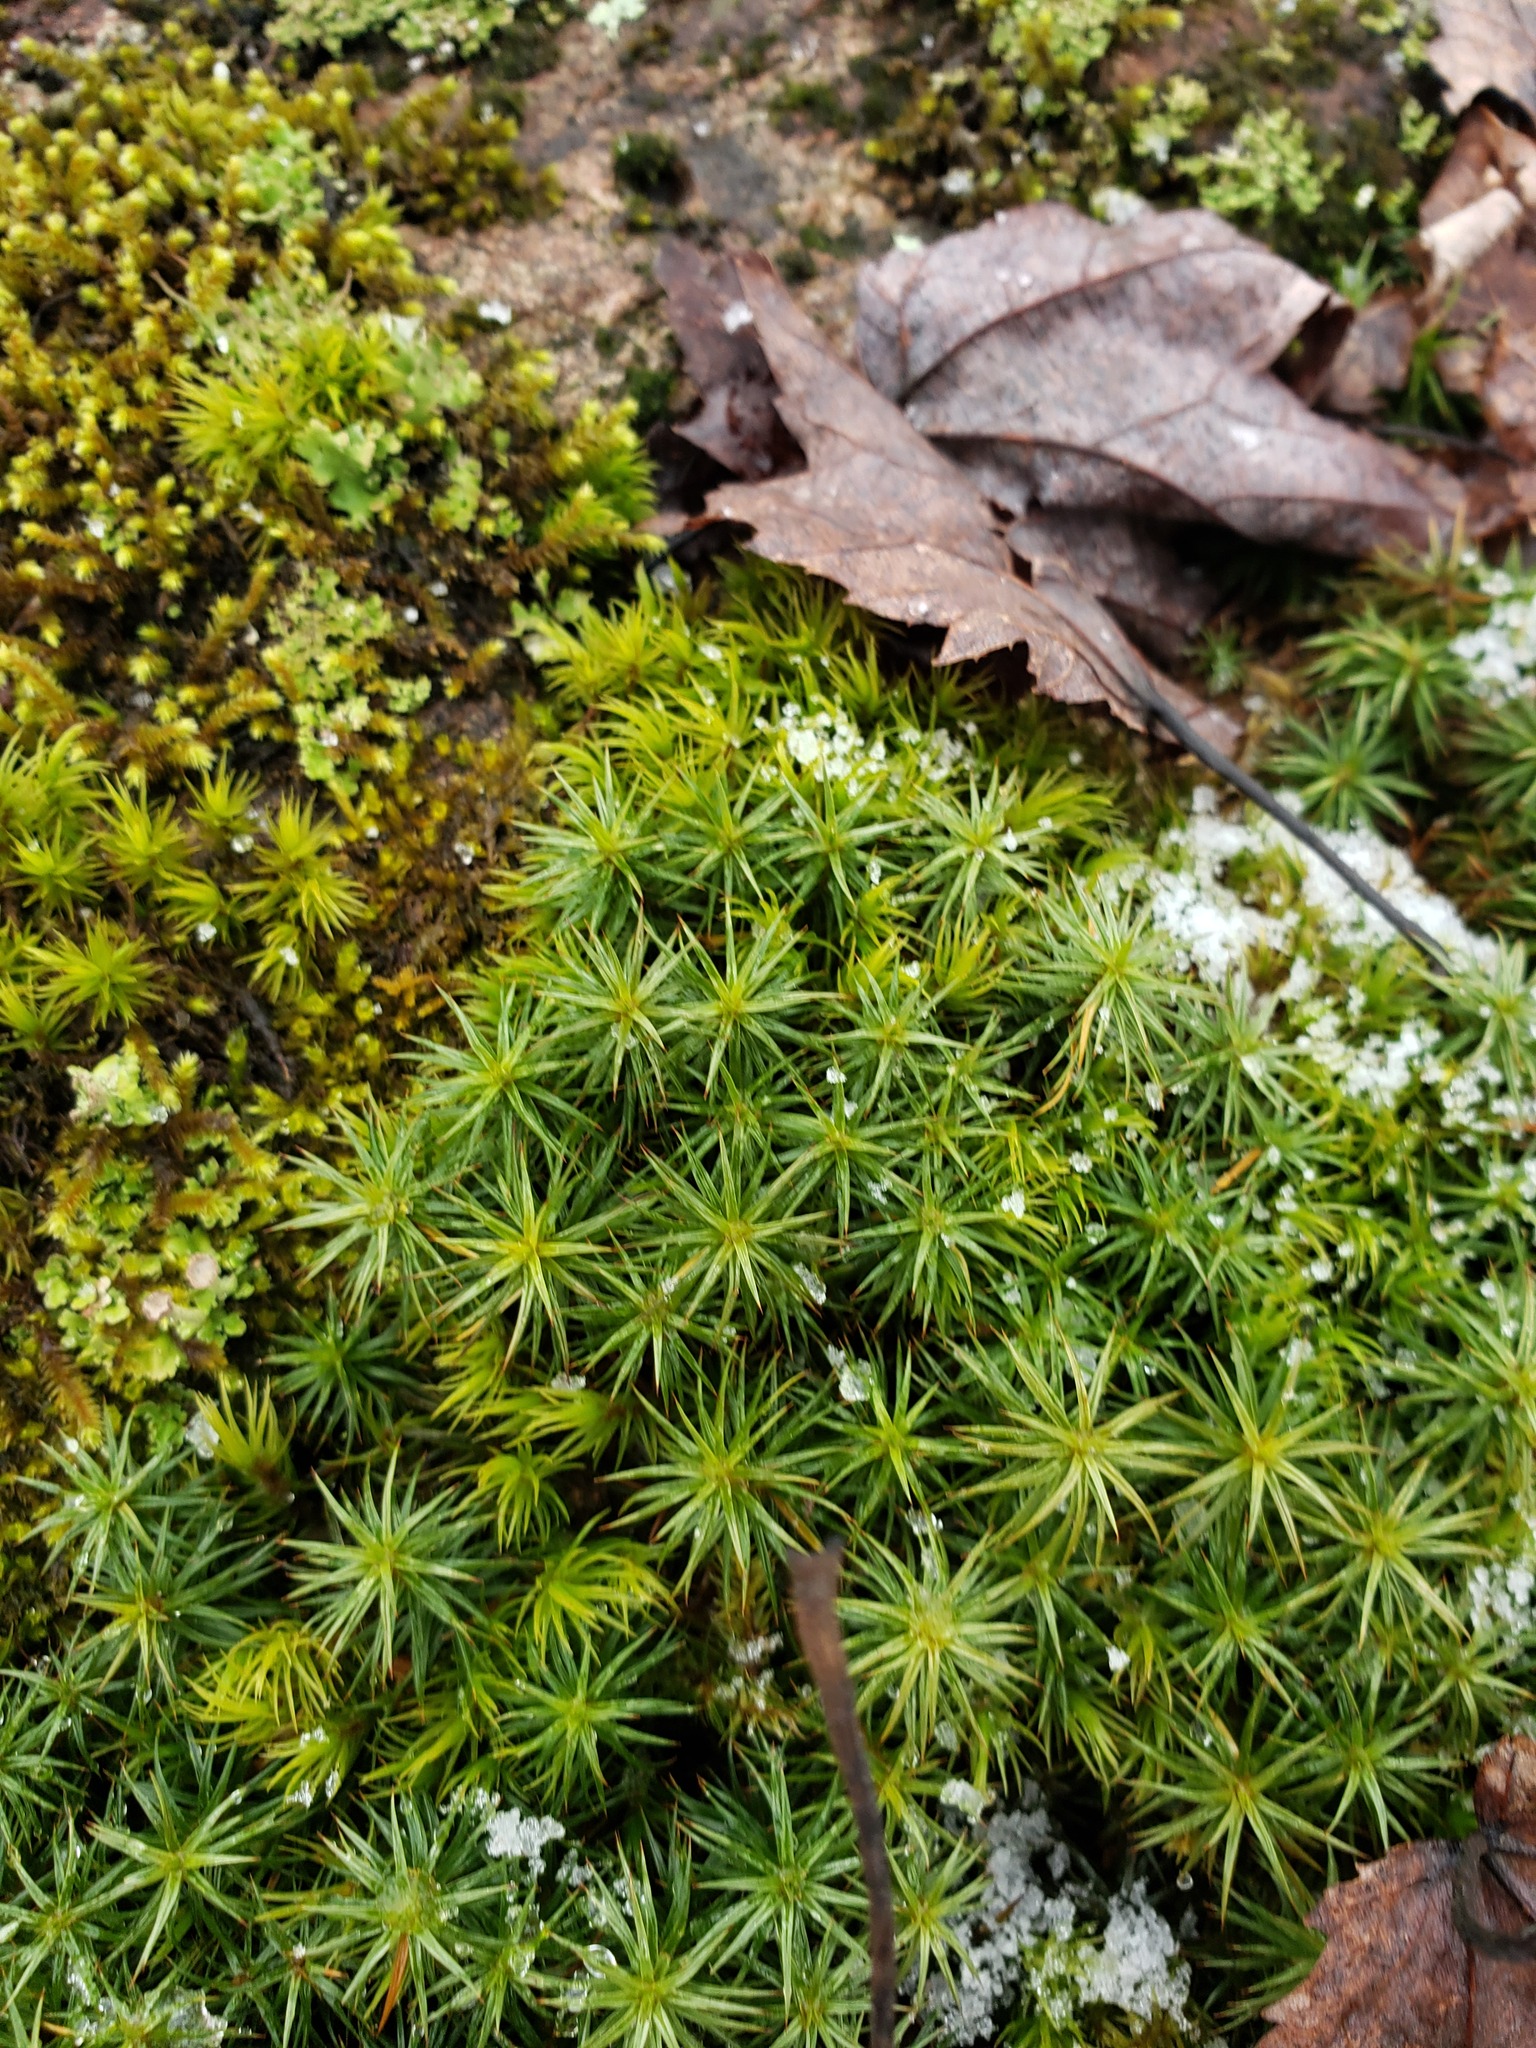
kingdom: Plantae
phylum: Bryophyta
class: Polytrichopsida
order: Polytrichales
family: Polytrichaceae
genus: Polytrichum
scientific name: Polytrichum juniperinum
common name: Juniper haircap moss
